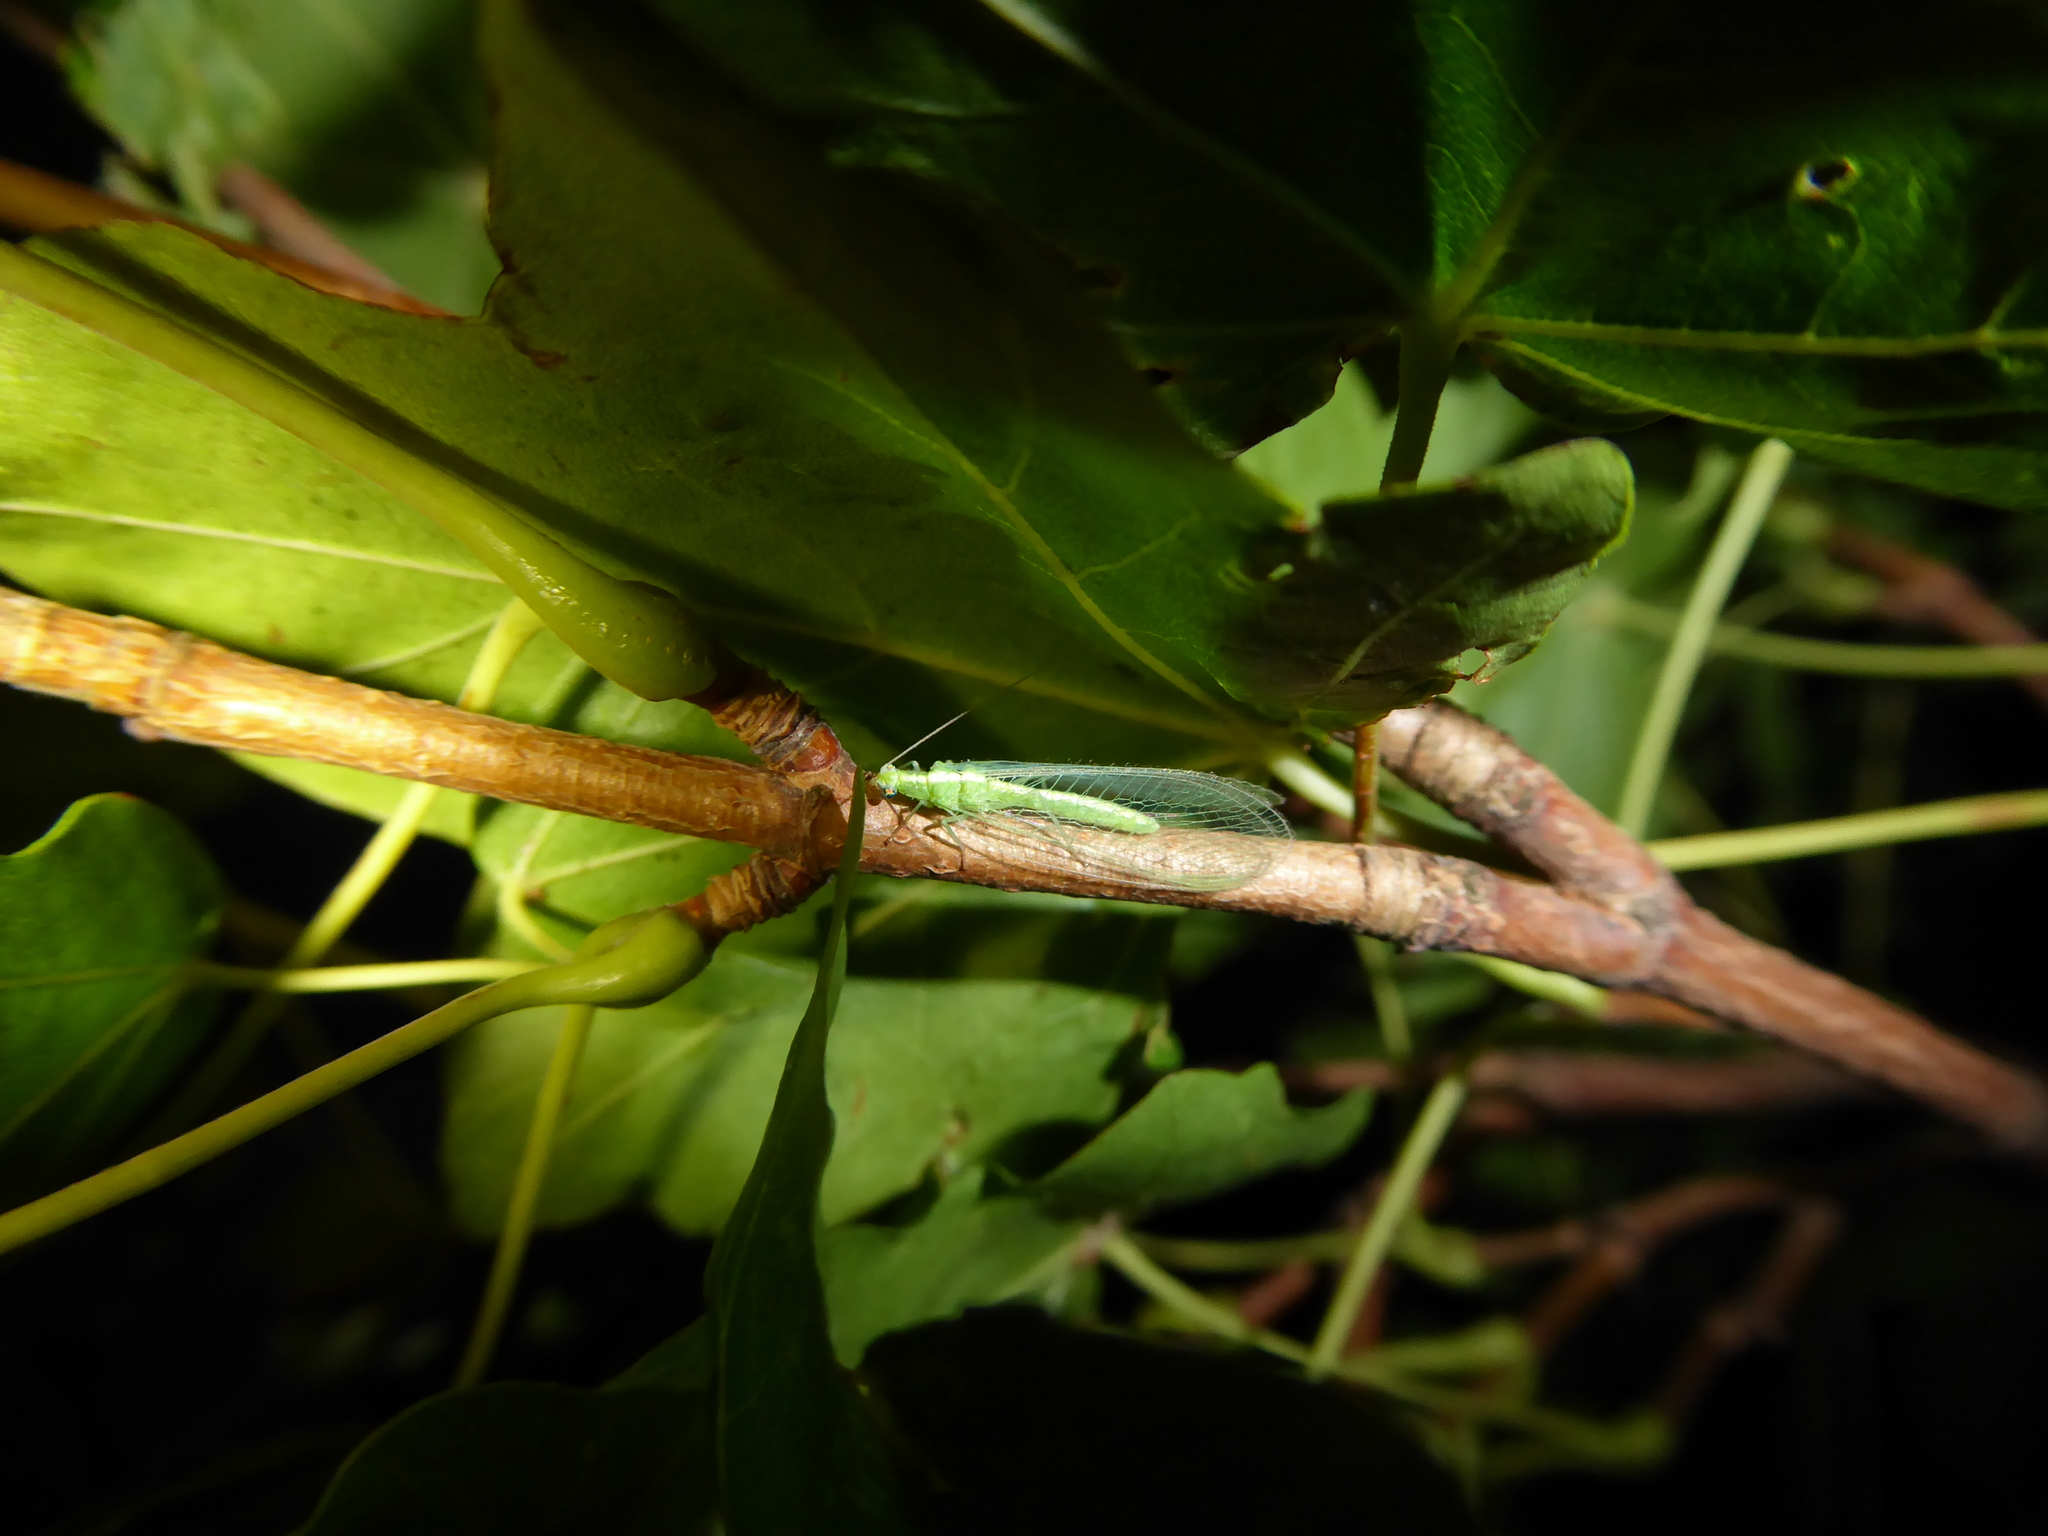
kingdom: Animalia
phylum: Arthropoda
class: Insecta
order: Neuroptera
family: Chrysopidae
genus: Chrysoperla
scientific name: Chrysoperla
